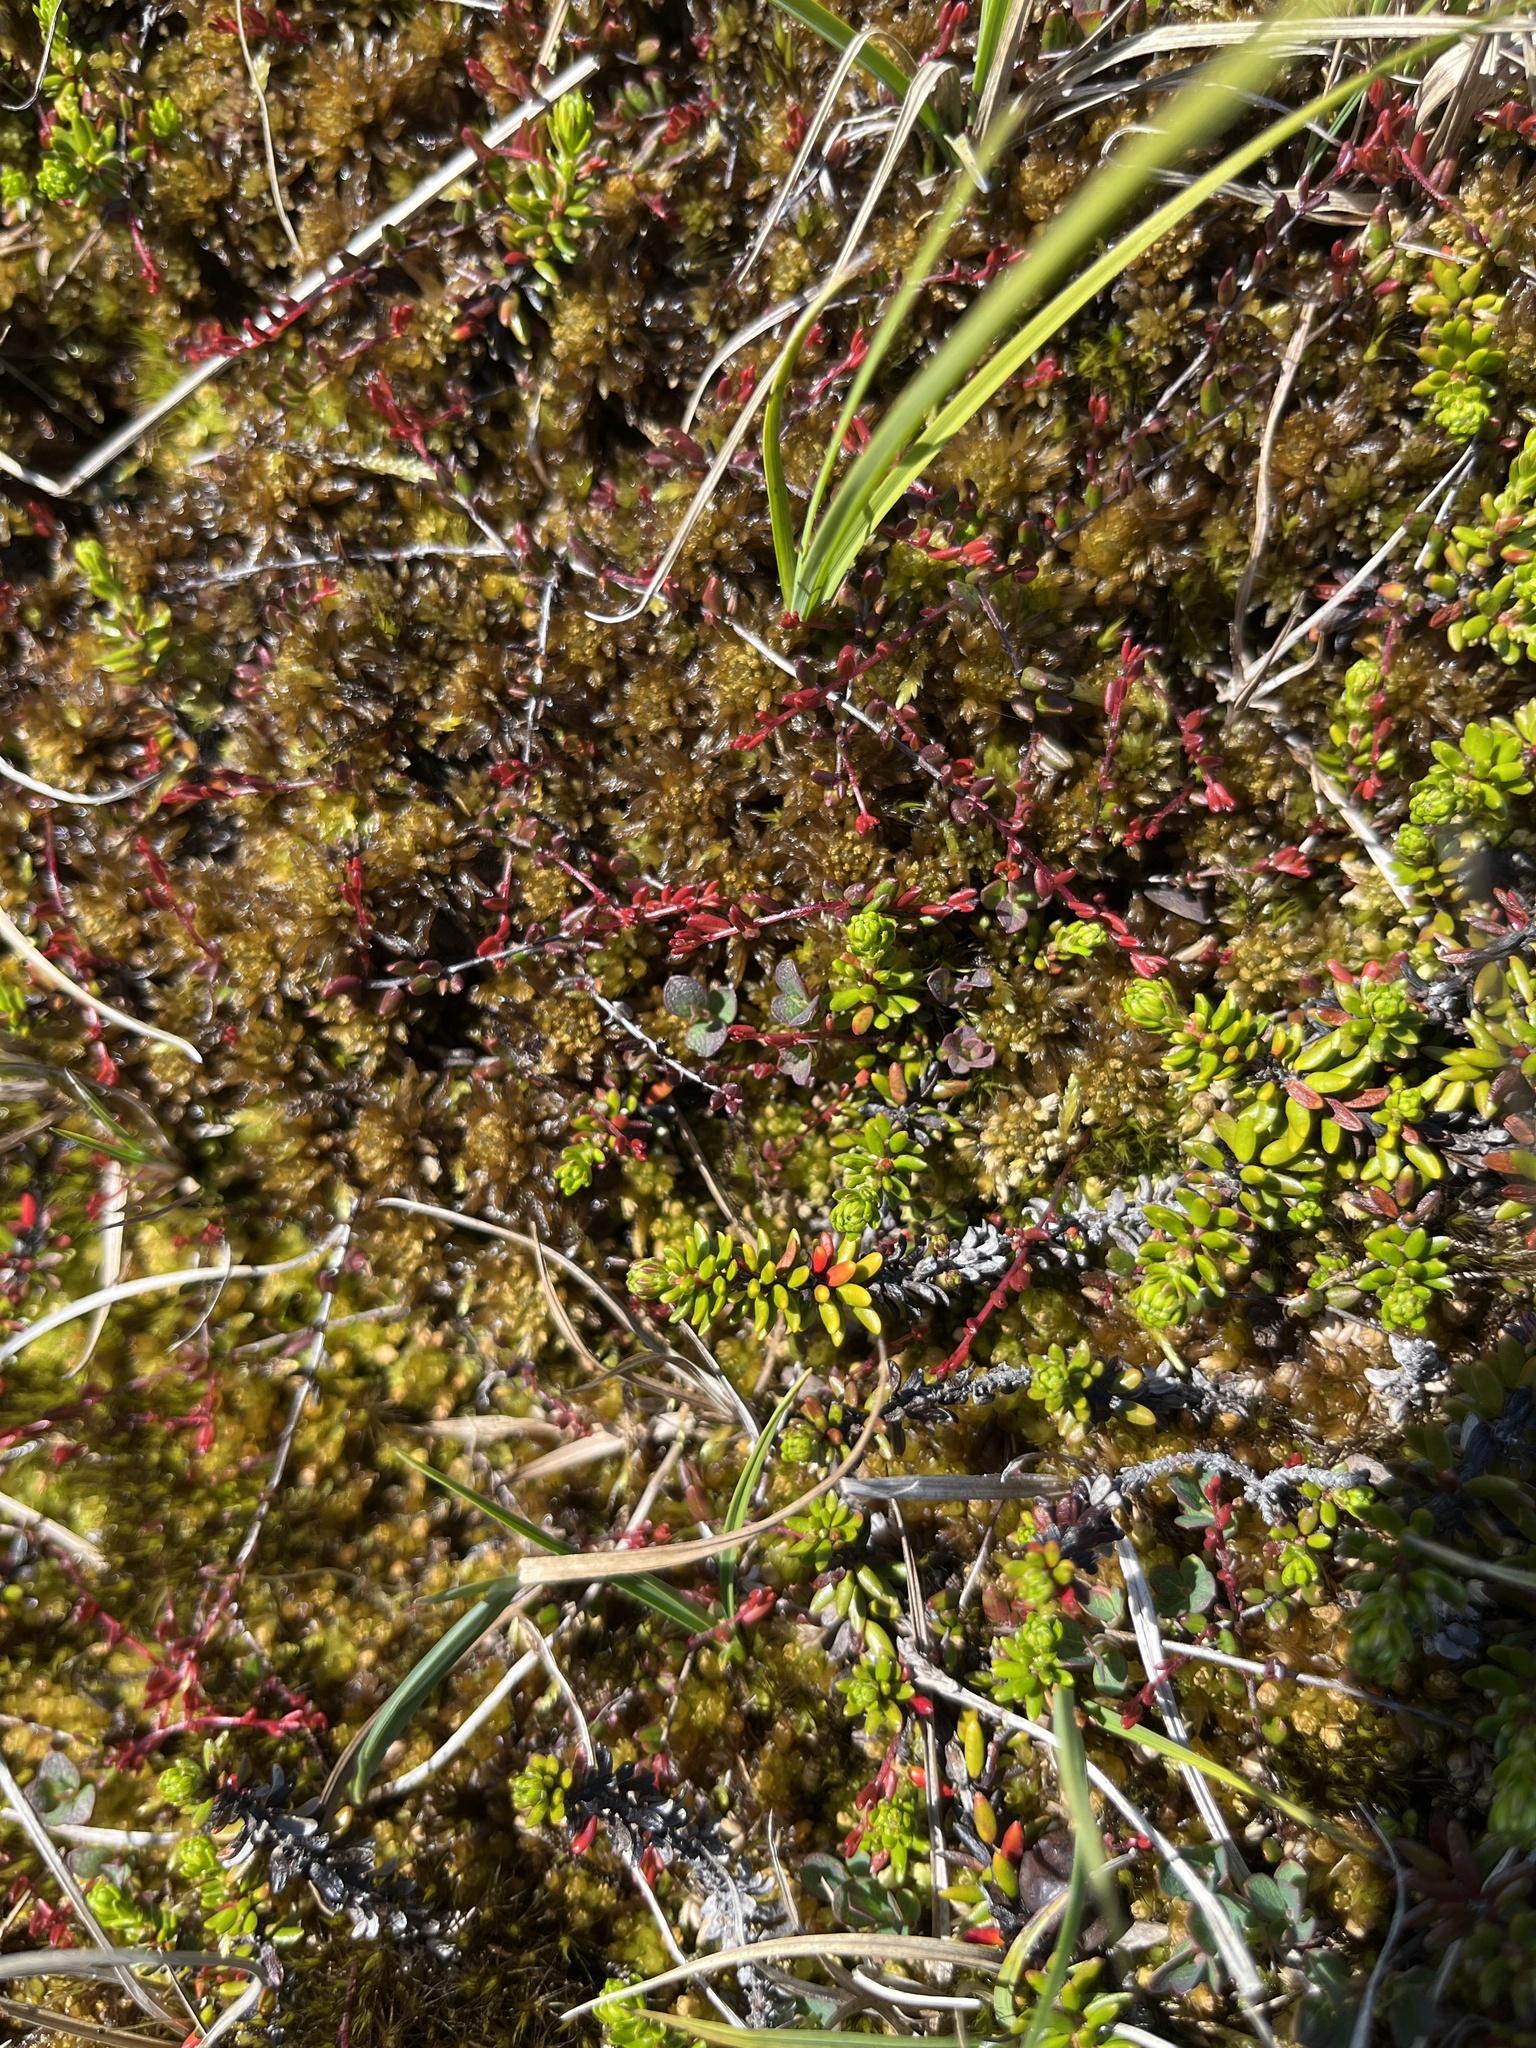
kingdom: Plantae
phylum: Tracheophyta
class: Magnoliopsida
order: Ericales
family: Ericaceae
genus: Vaccinium
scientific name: Vaccinium oxycoccos
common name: Cranberry
